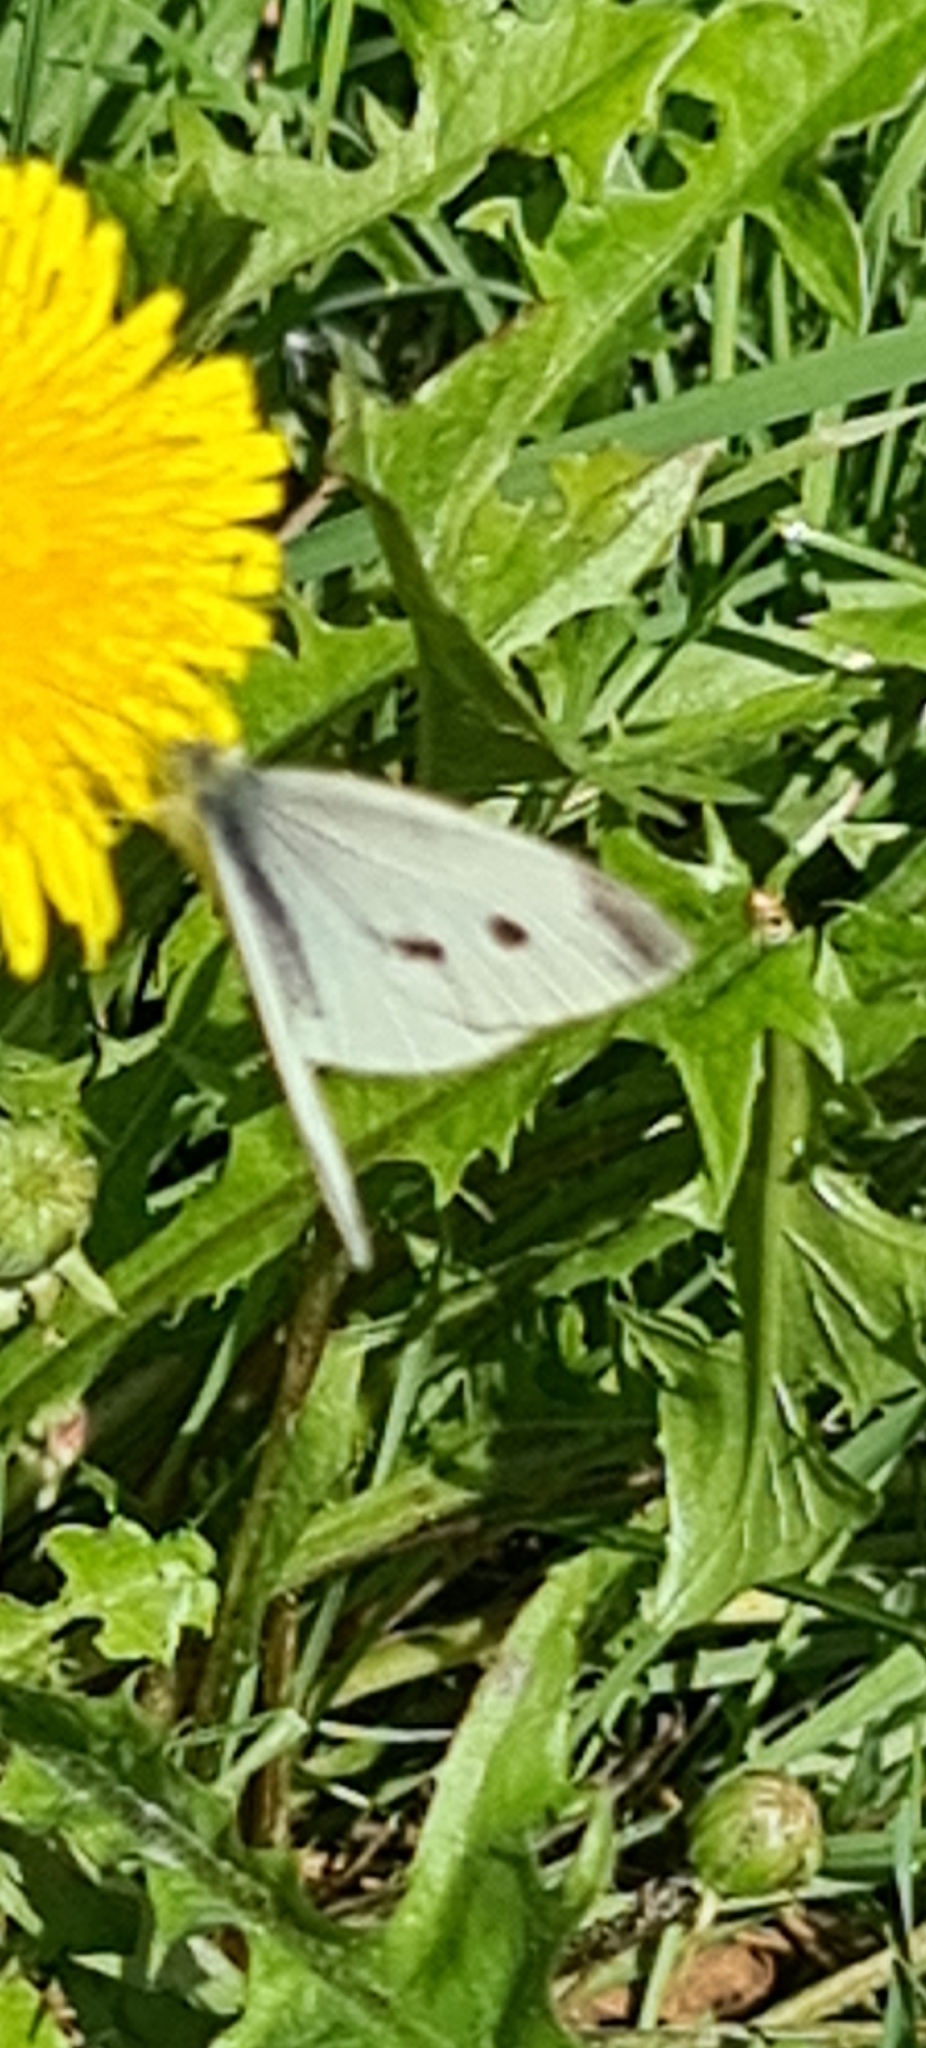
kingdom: Animalia
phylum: Arthropoda
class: Insecta
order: Lepidoptera
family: Pieridae
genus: Pieris
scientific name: Pieris rapae
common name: Small white
